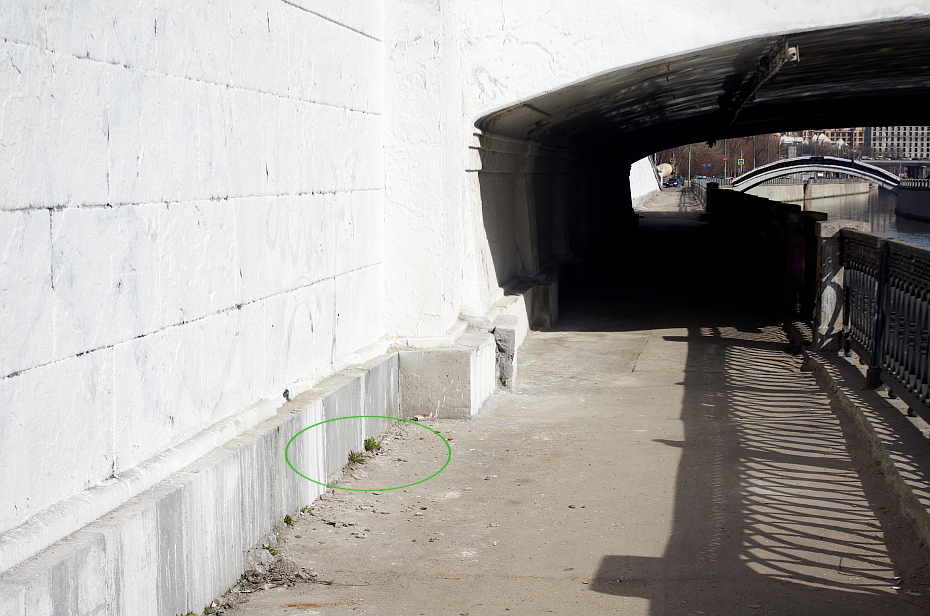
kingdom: Plantae
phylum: Tracheophyta
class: Magnoliopsida
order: Asterales
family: Asteraceae
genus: Taraxacum
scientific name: Taraxacum officinale
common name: Common dandelion
